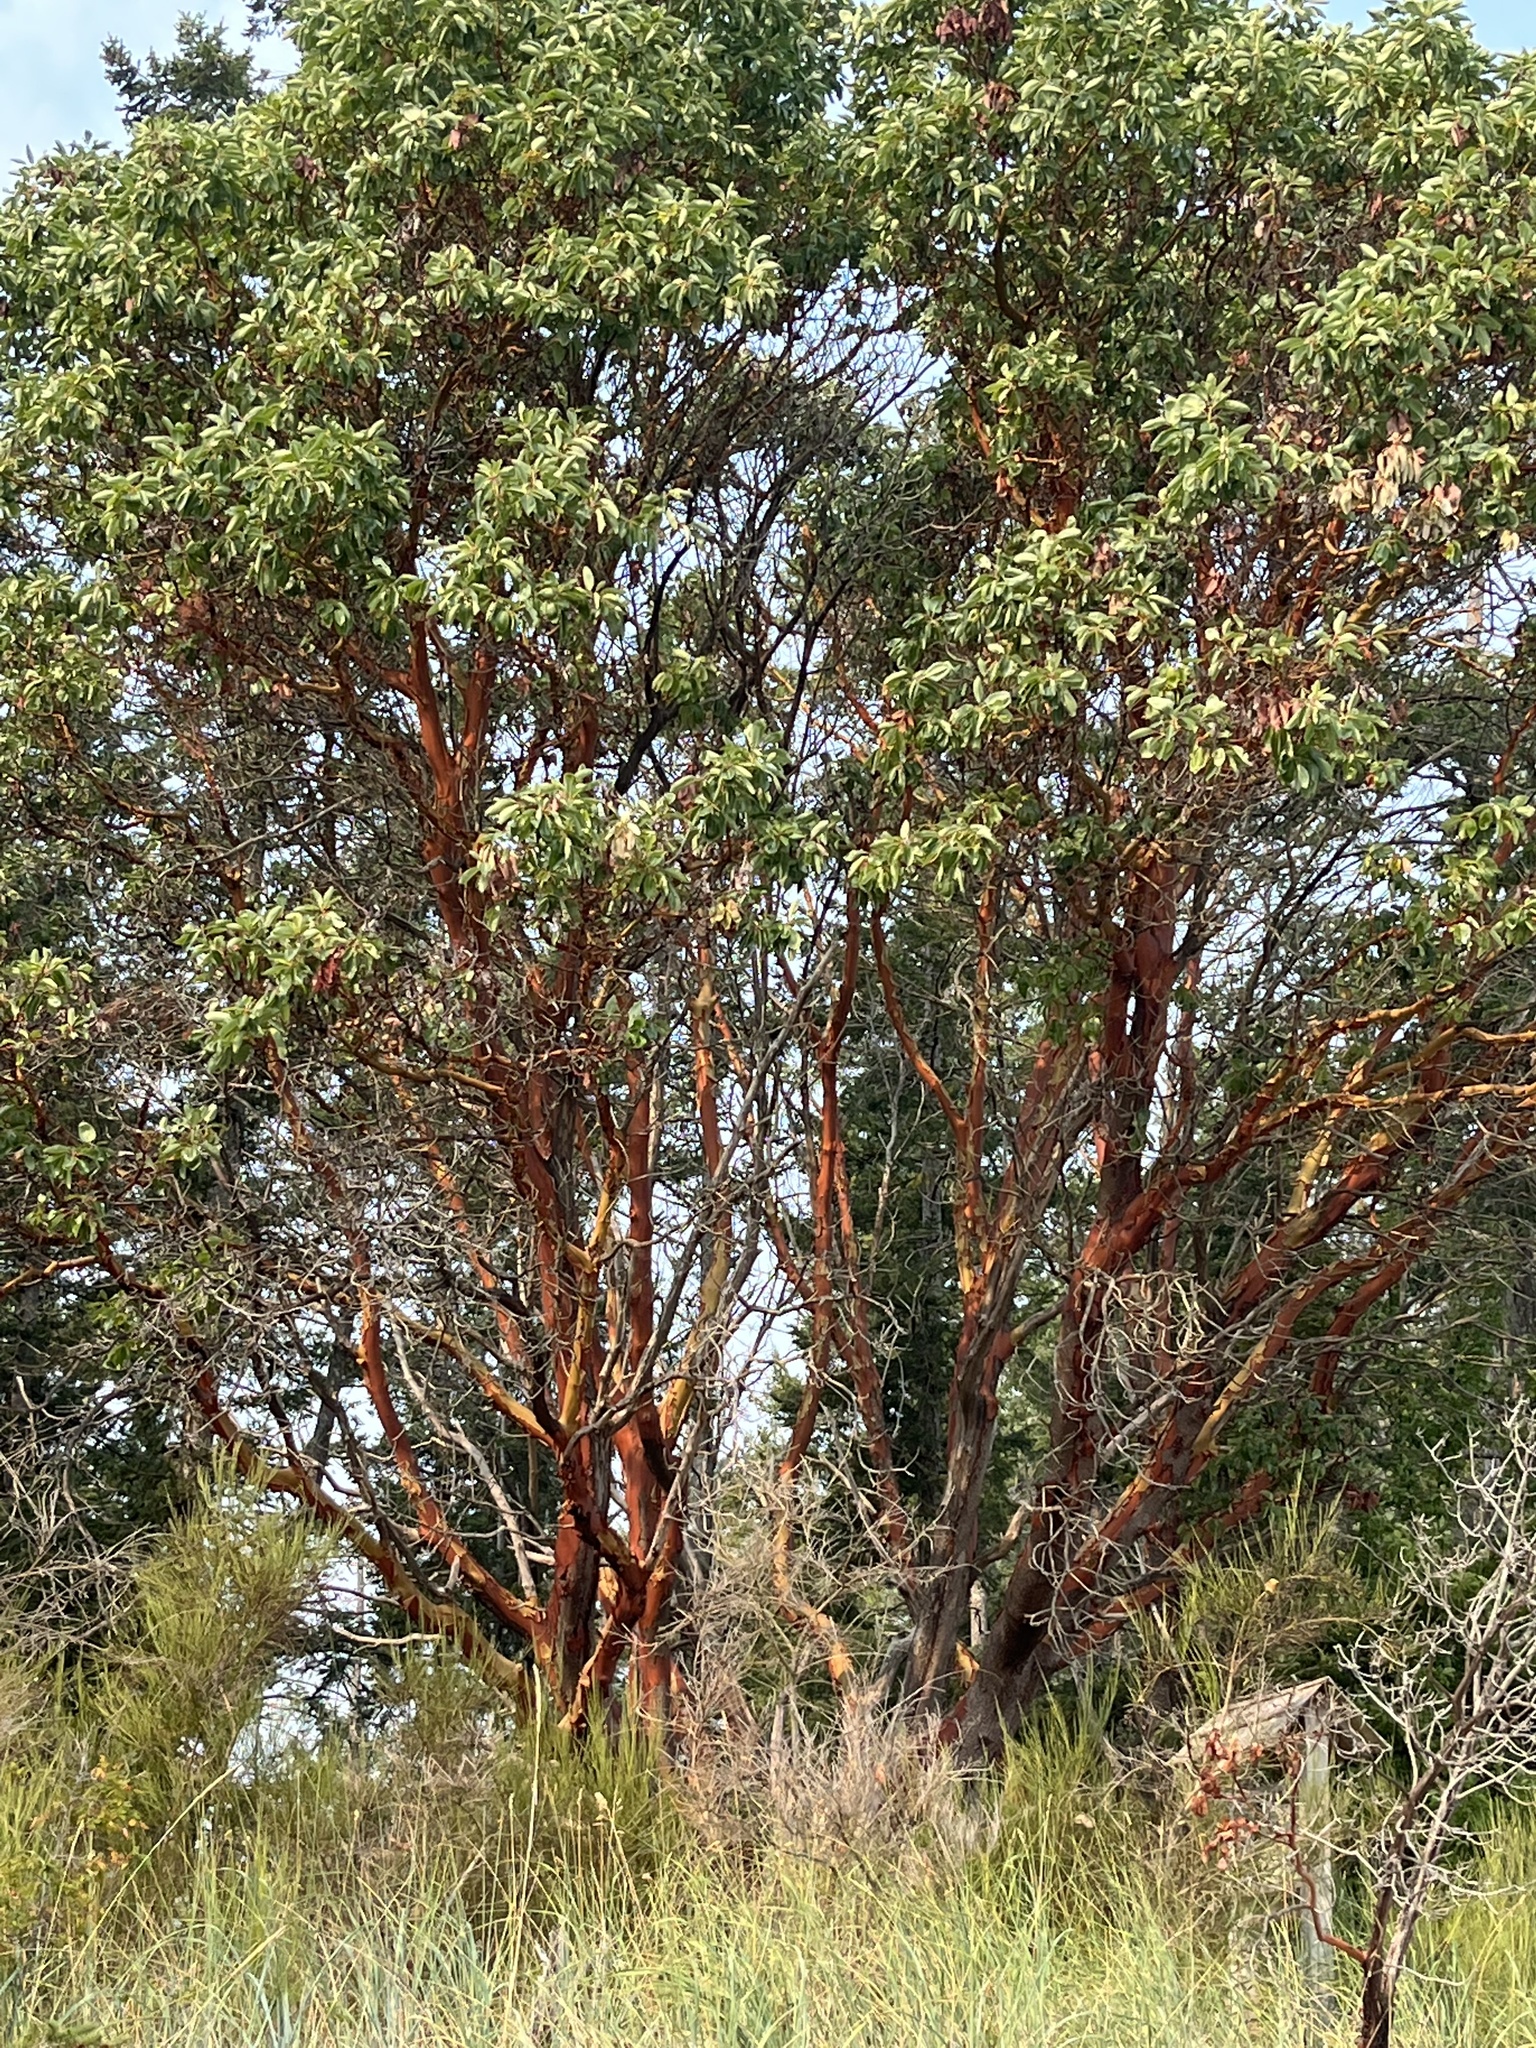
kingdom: Plantae
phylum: Tracheophyta
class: Magnoliopsida
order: Ericales
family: Ericaceae
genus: Arbutus
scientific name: Arbutus menziesii
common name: Pacific madrone
